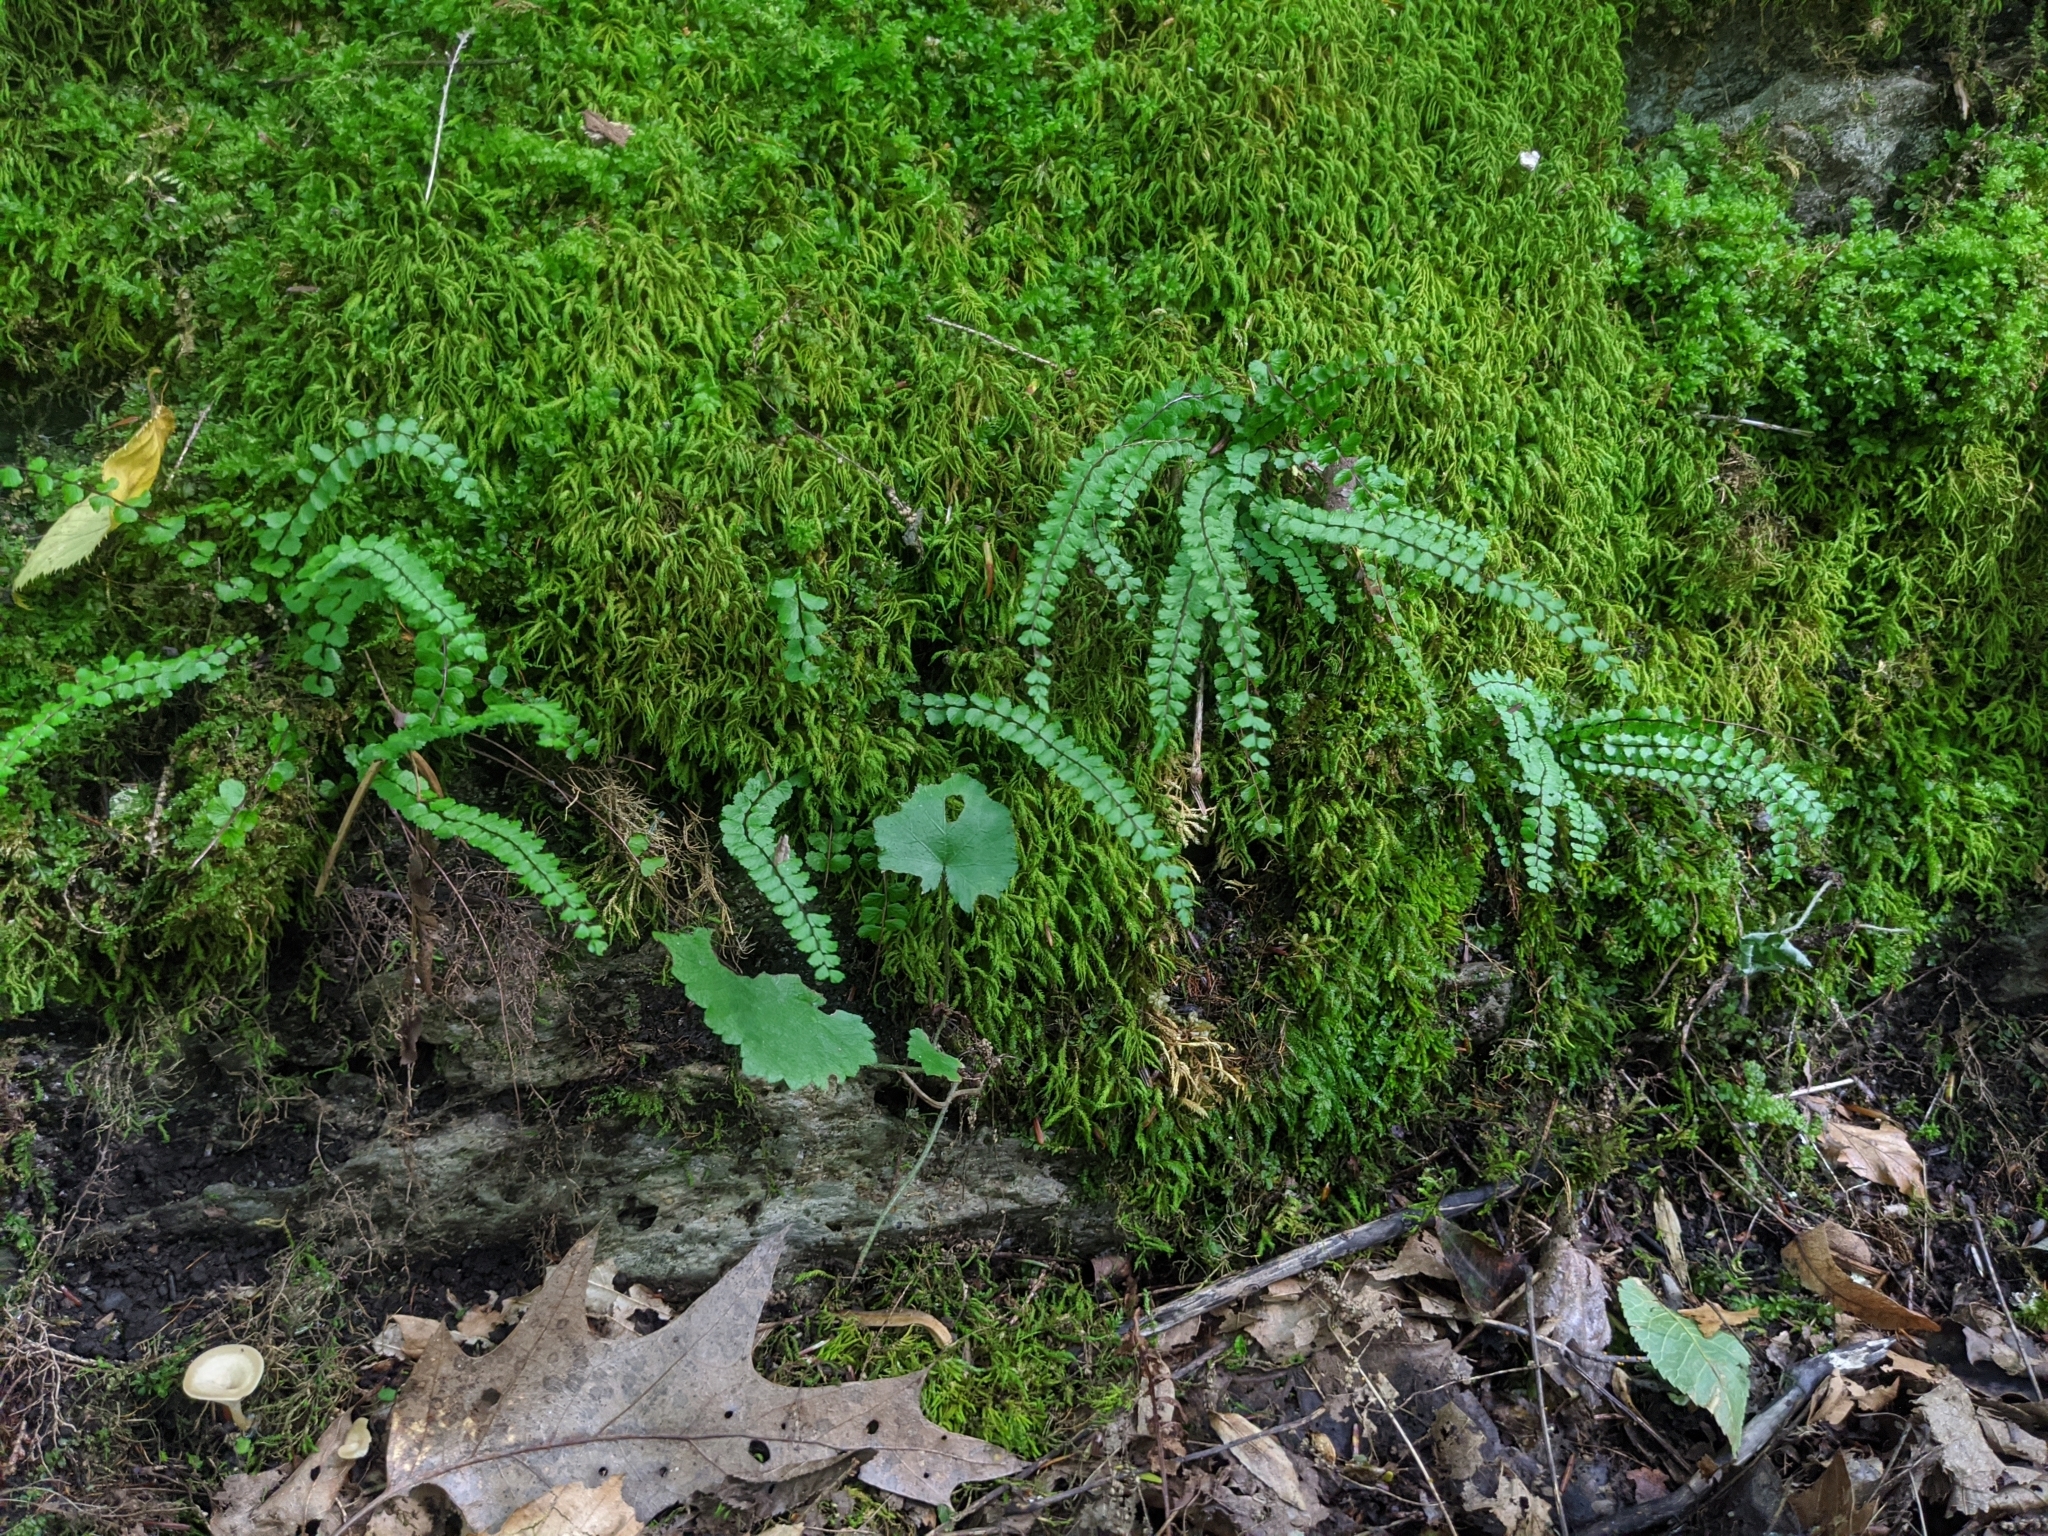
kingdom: Plantae
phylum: Tracheophyta
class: Polypodiopsida
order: Polypodiales
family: Aspleniaceae
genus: Asplenium
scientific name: Asplenium trichomanes
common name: Maidenhair spleenwort
